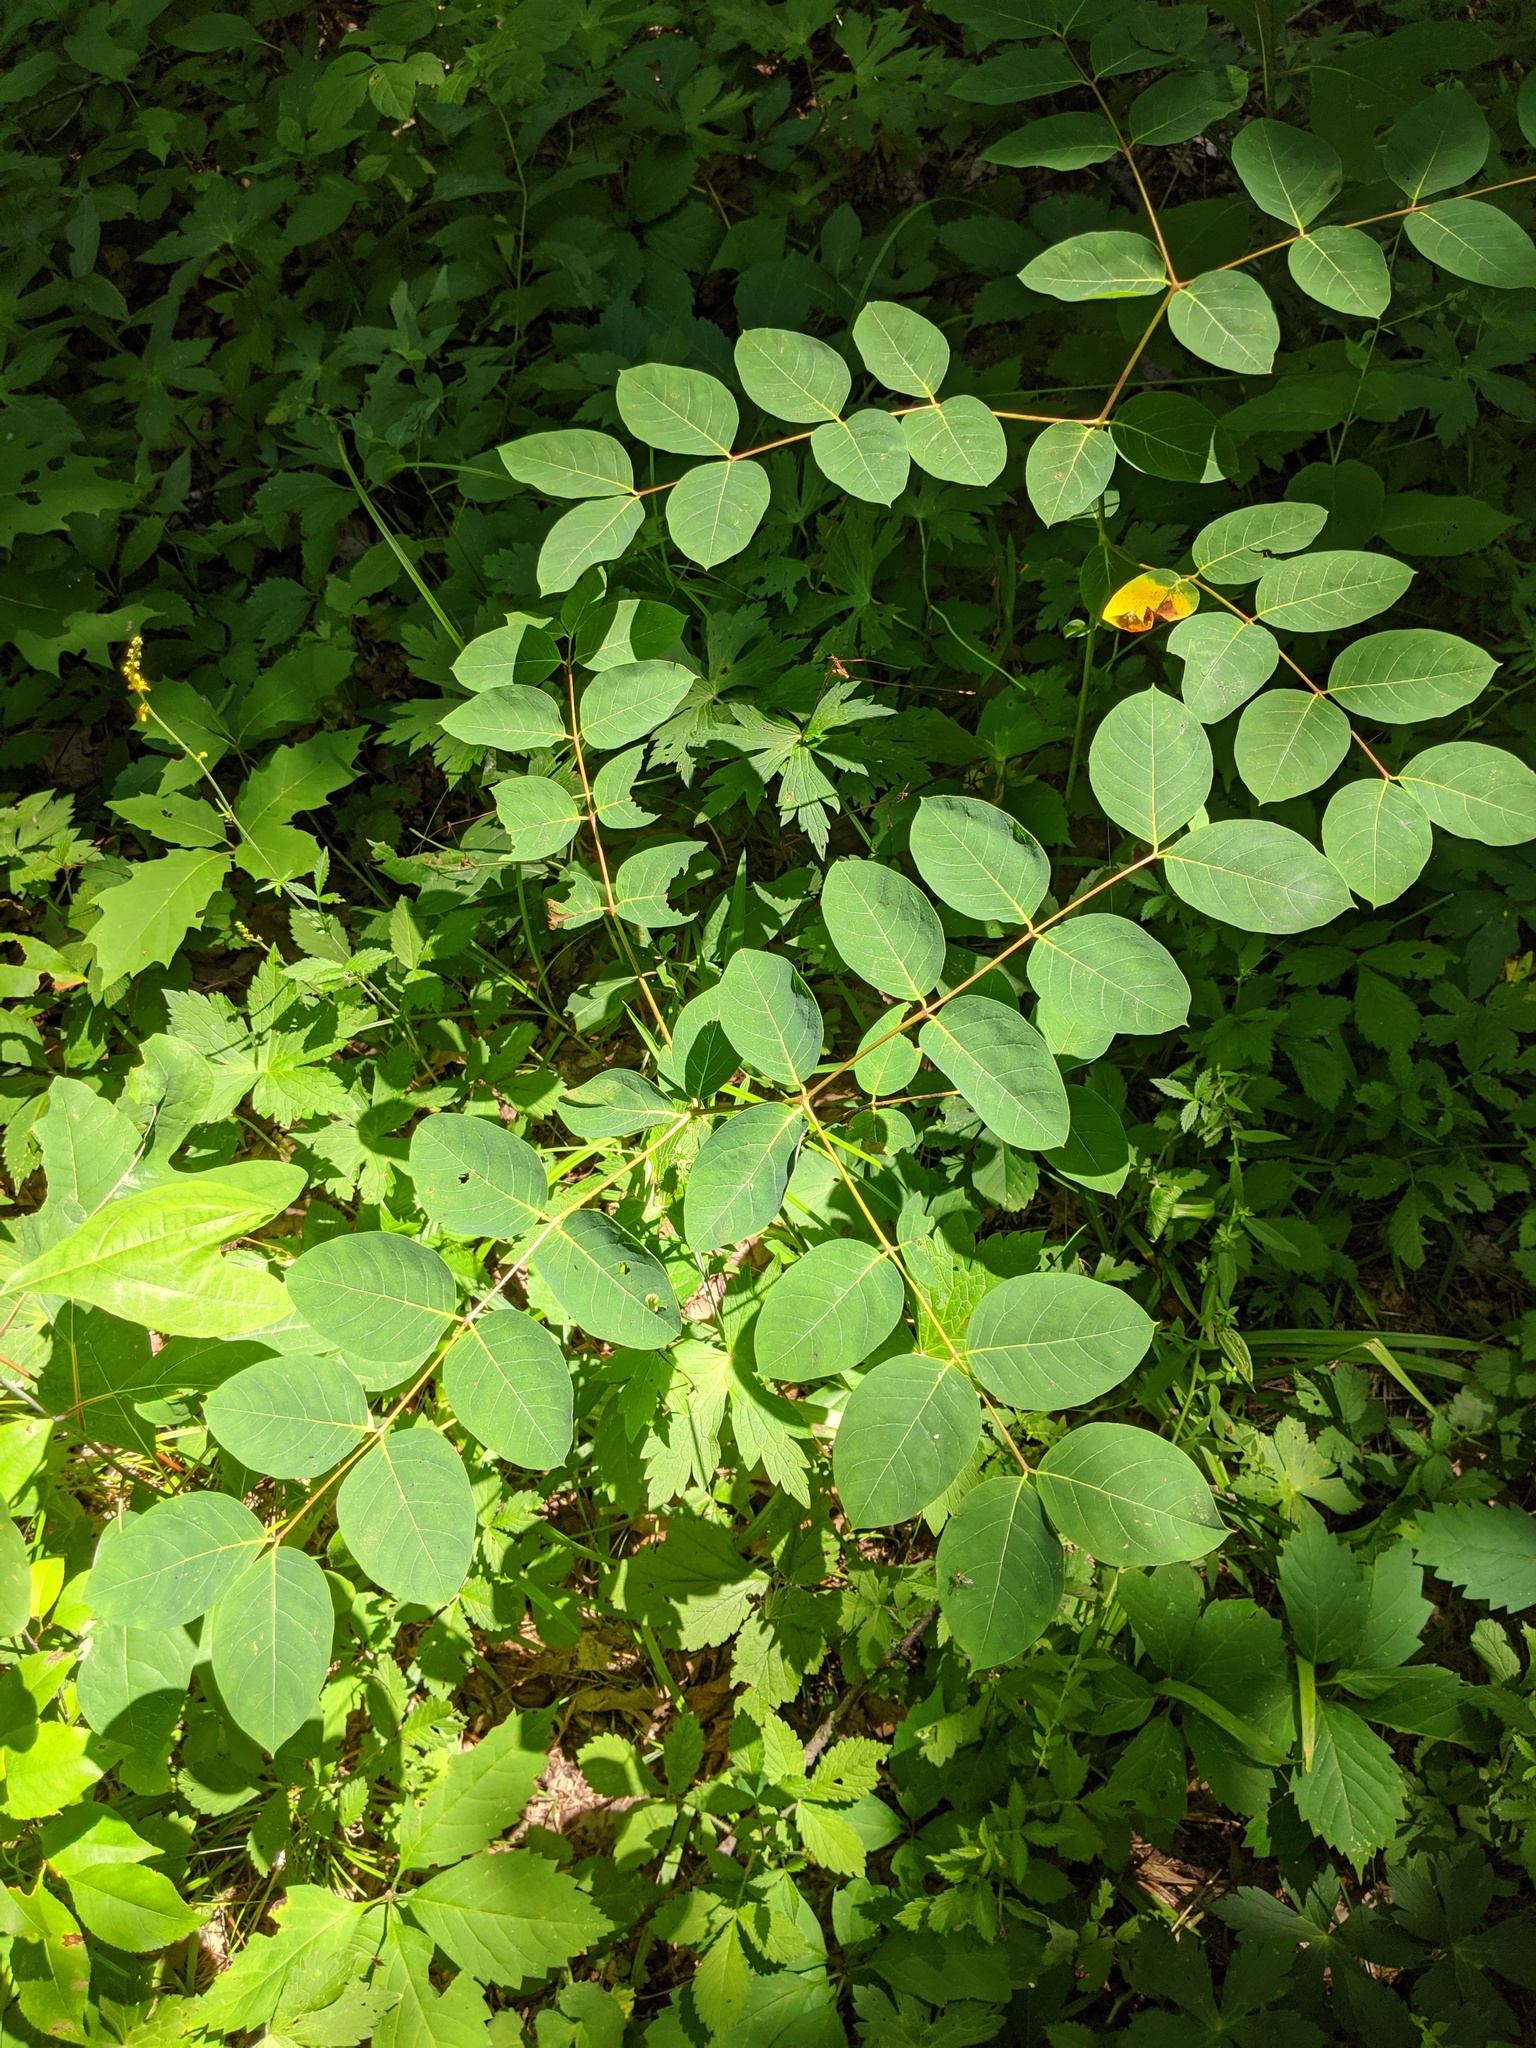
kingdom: Plantae
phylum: Tracheophyta
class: Magnoliopsida
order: Gentianales
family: Apocynaceae
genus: Apocynum
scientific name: Apocynum androsaemifolium
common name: Spreading dogbane
